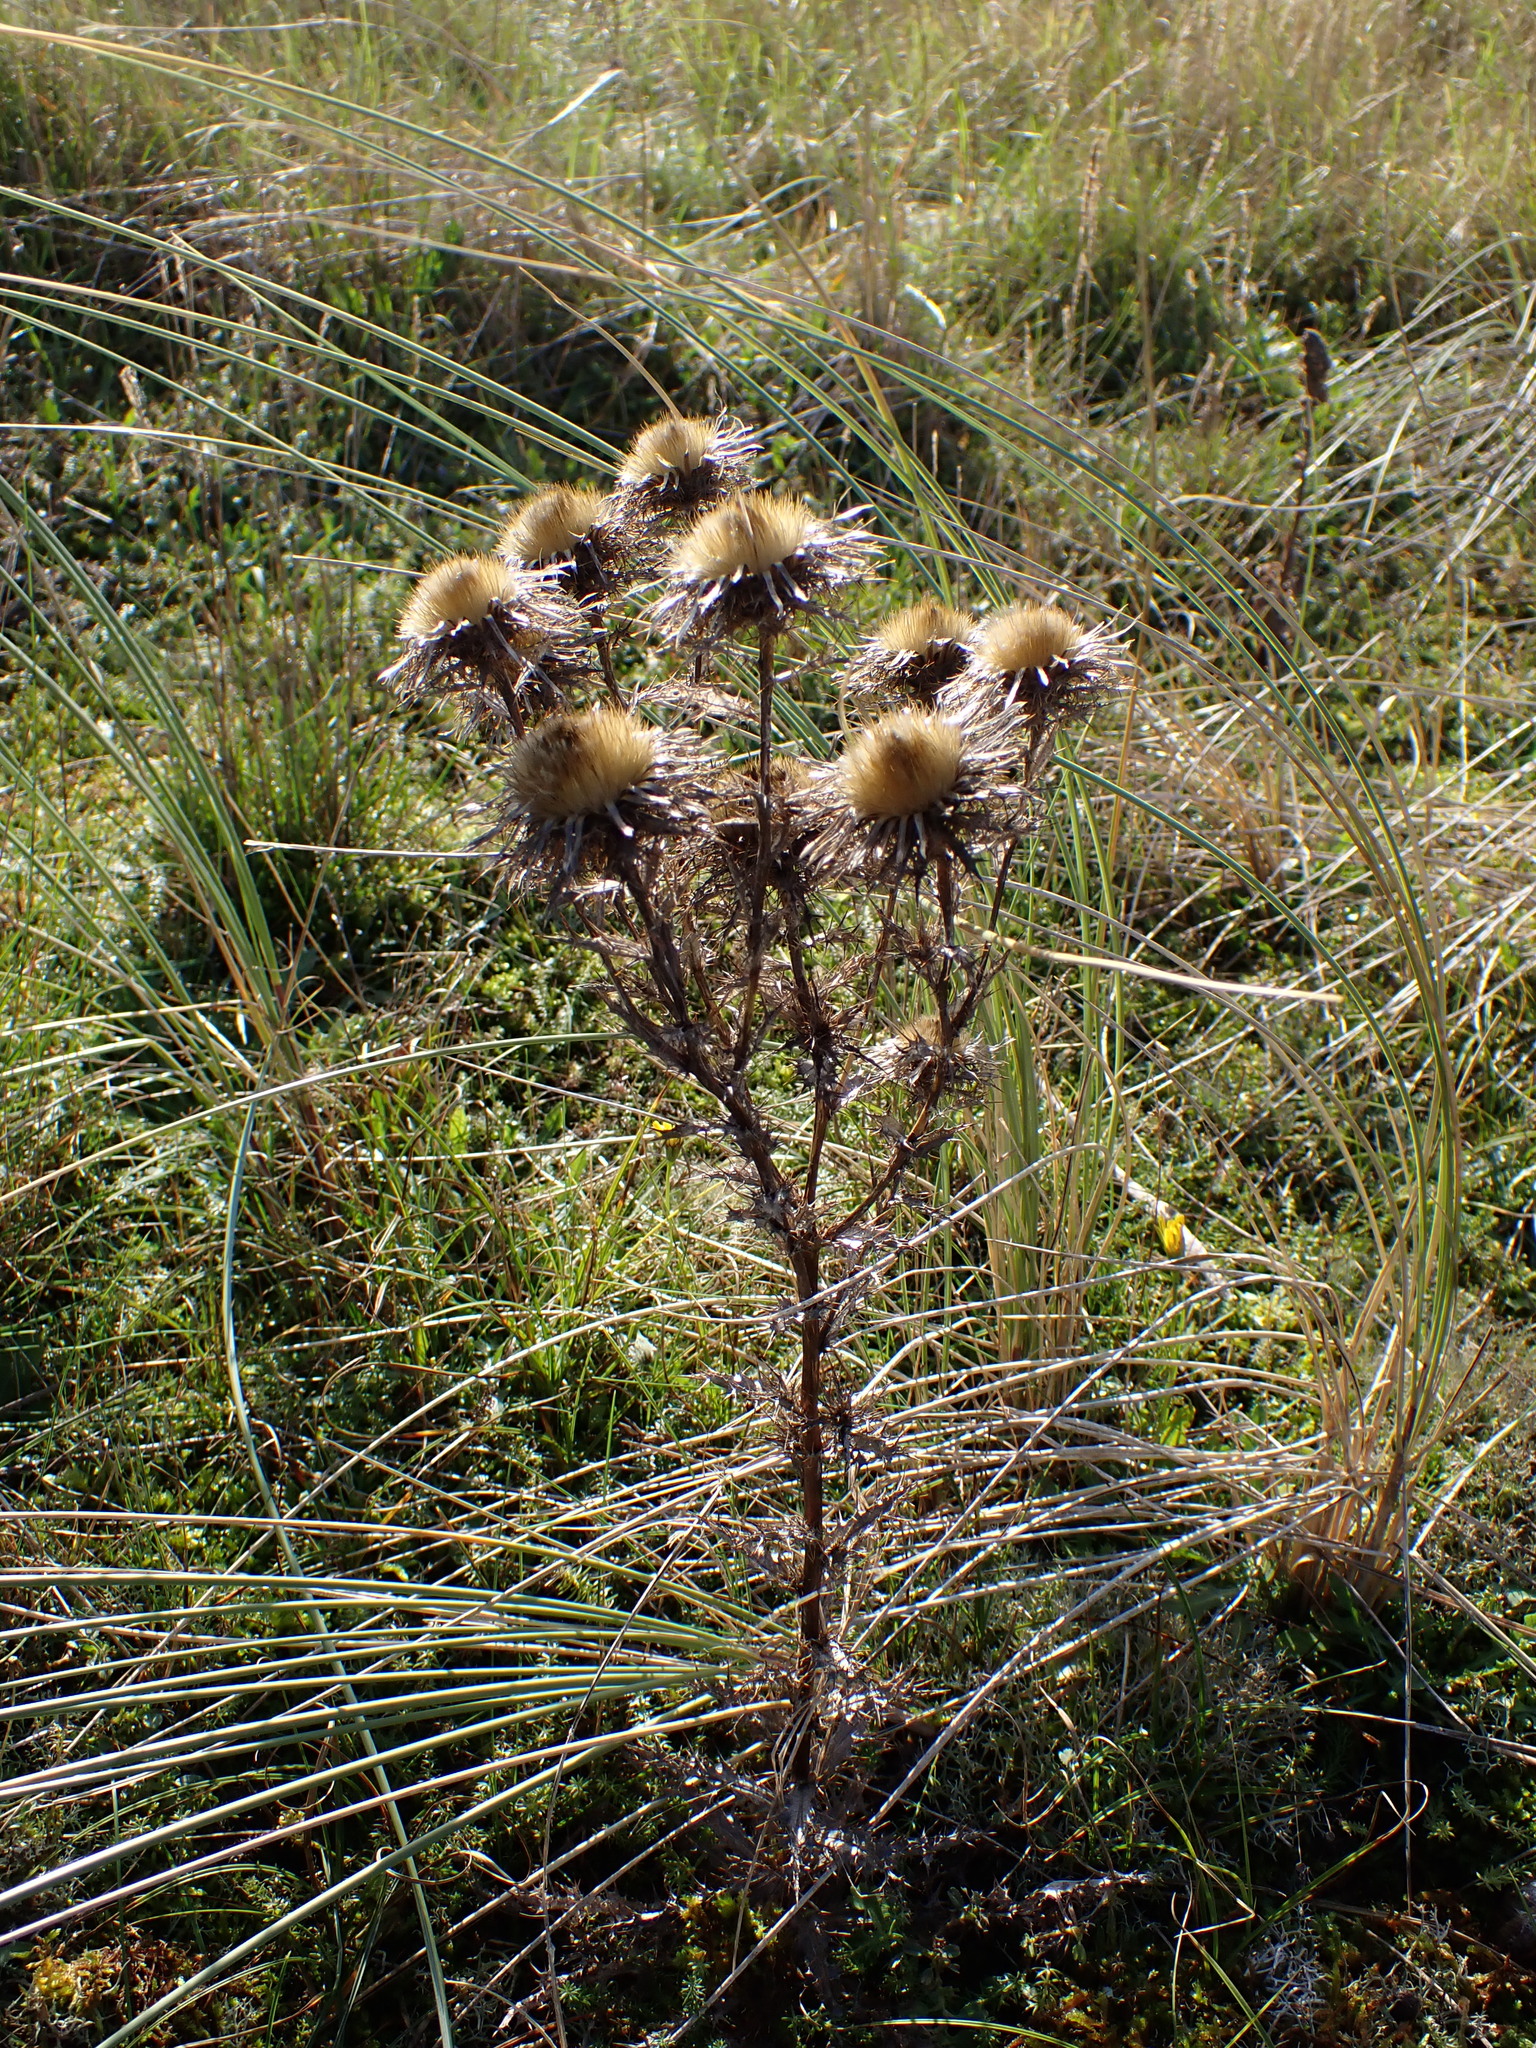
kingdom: Plantae
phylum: Tracheophyta
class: Magnoliopsida
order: Asterales
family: Asteraceae
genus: Carlina
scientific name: Carlina vulgaris
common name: Carline thistle
